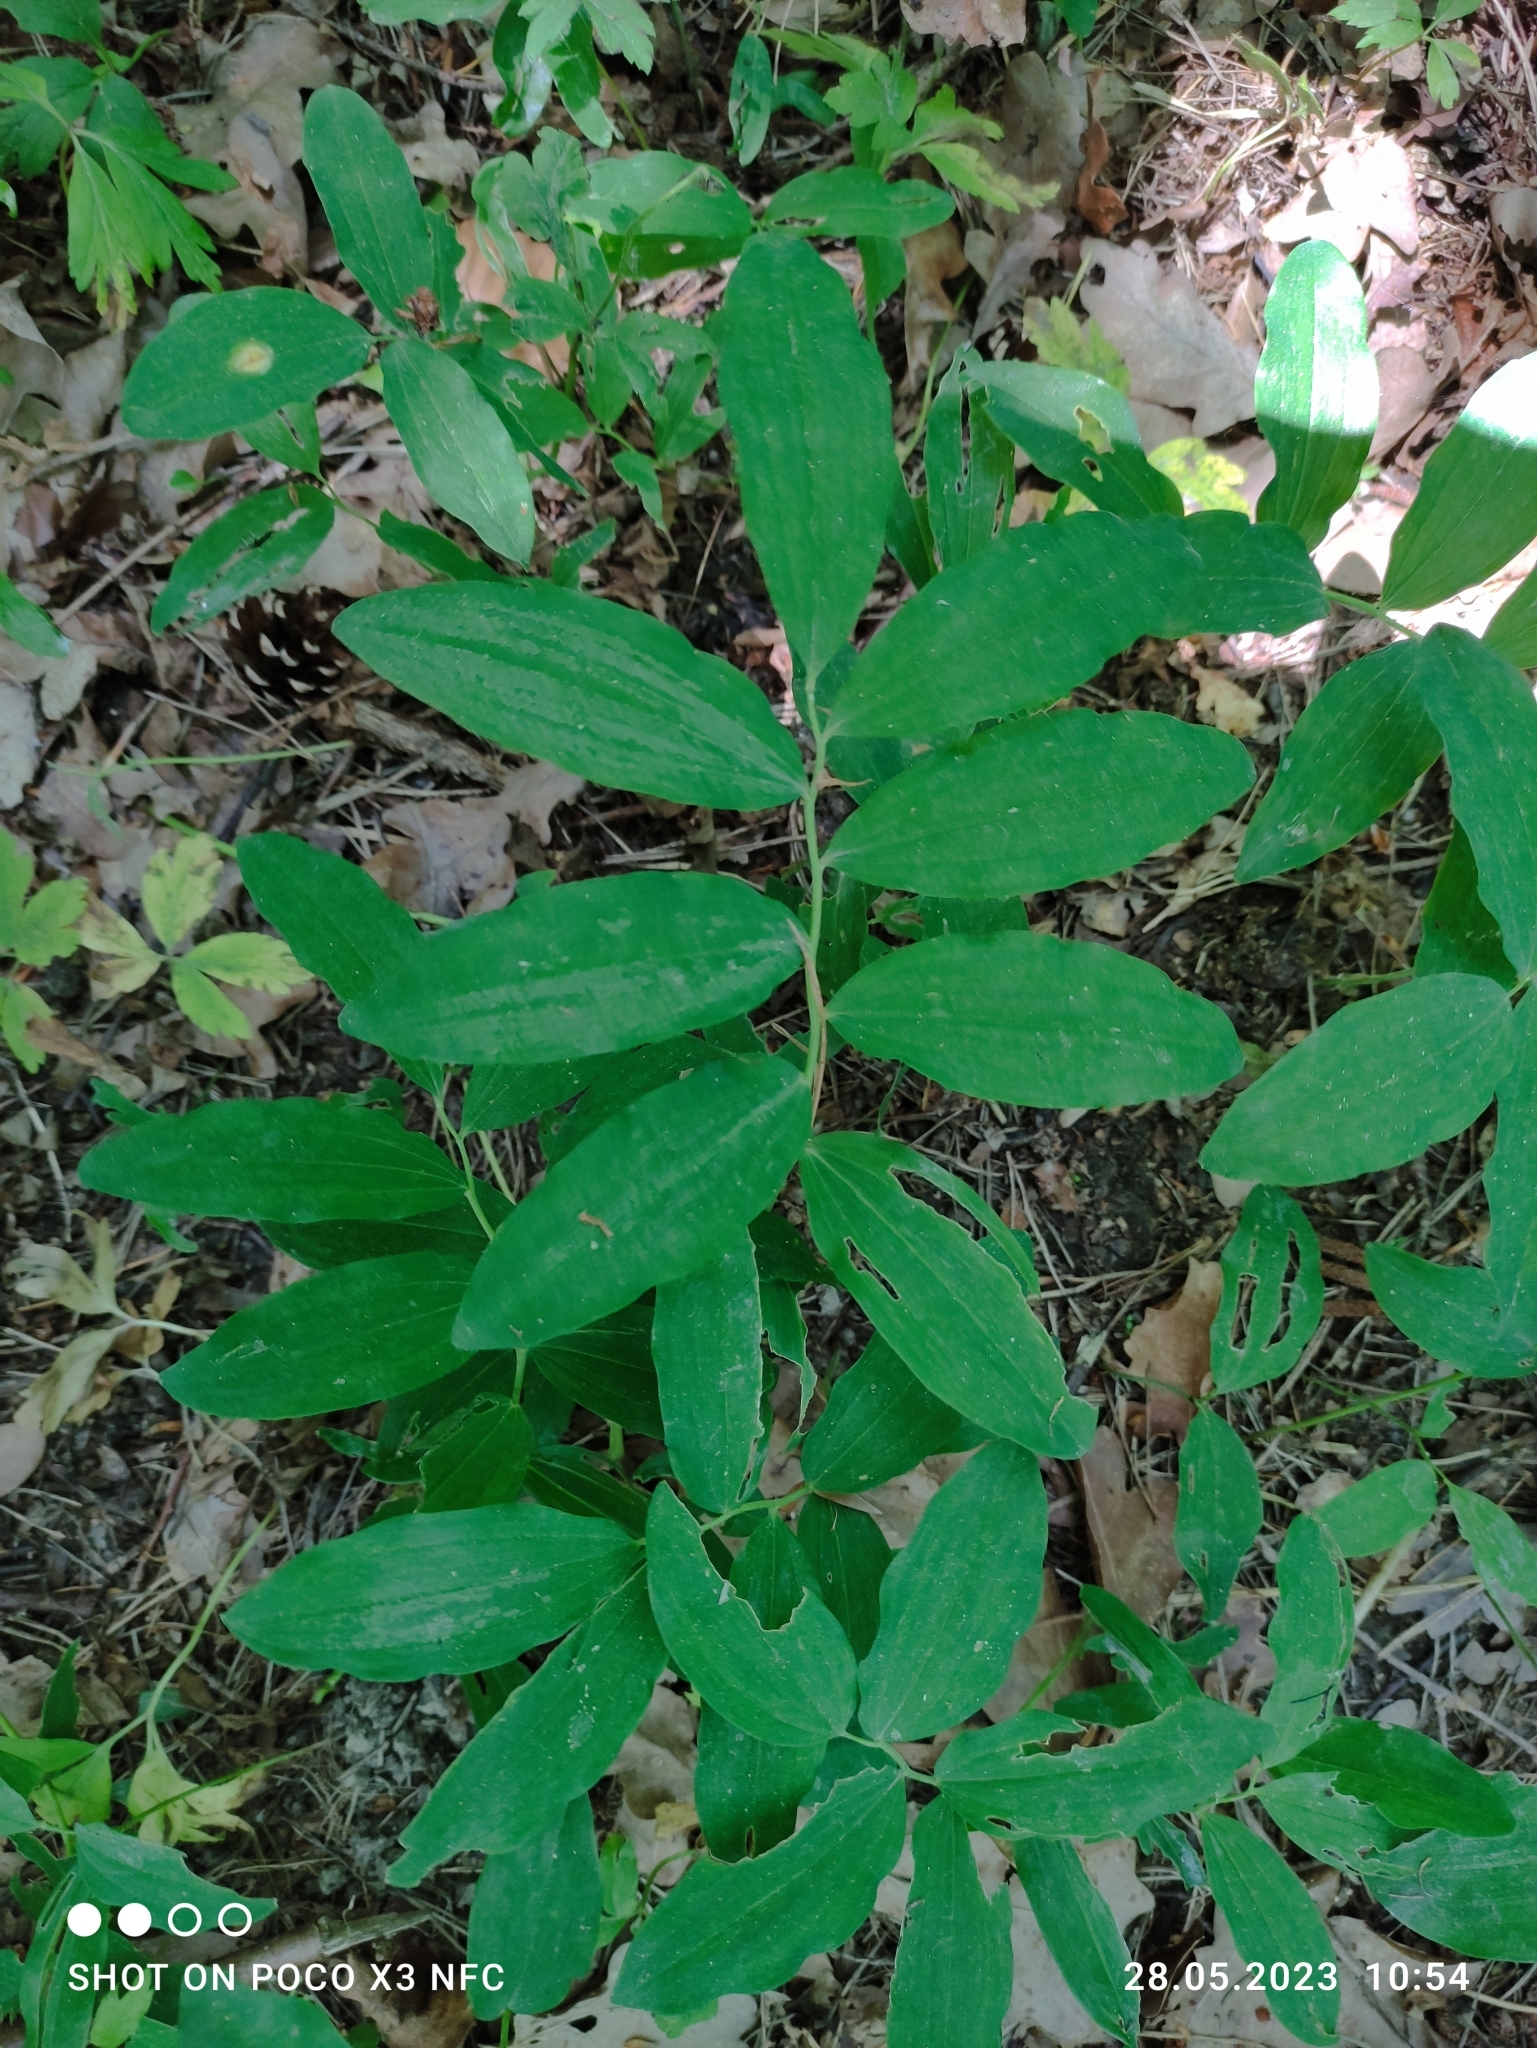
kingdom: Plantae
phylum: Tracheophyta
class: Liliopsida
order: Asparagales
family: Asparagaceae
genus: Polygonatum
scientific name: Polygonatum multiflorum
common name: Solomon's-seal
